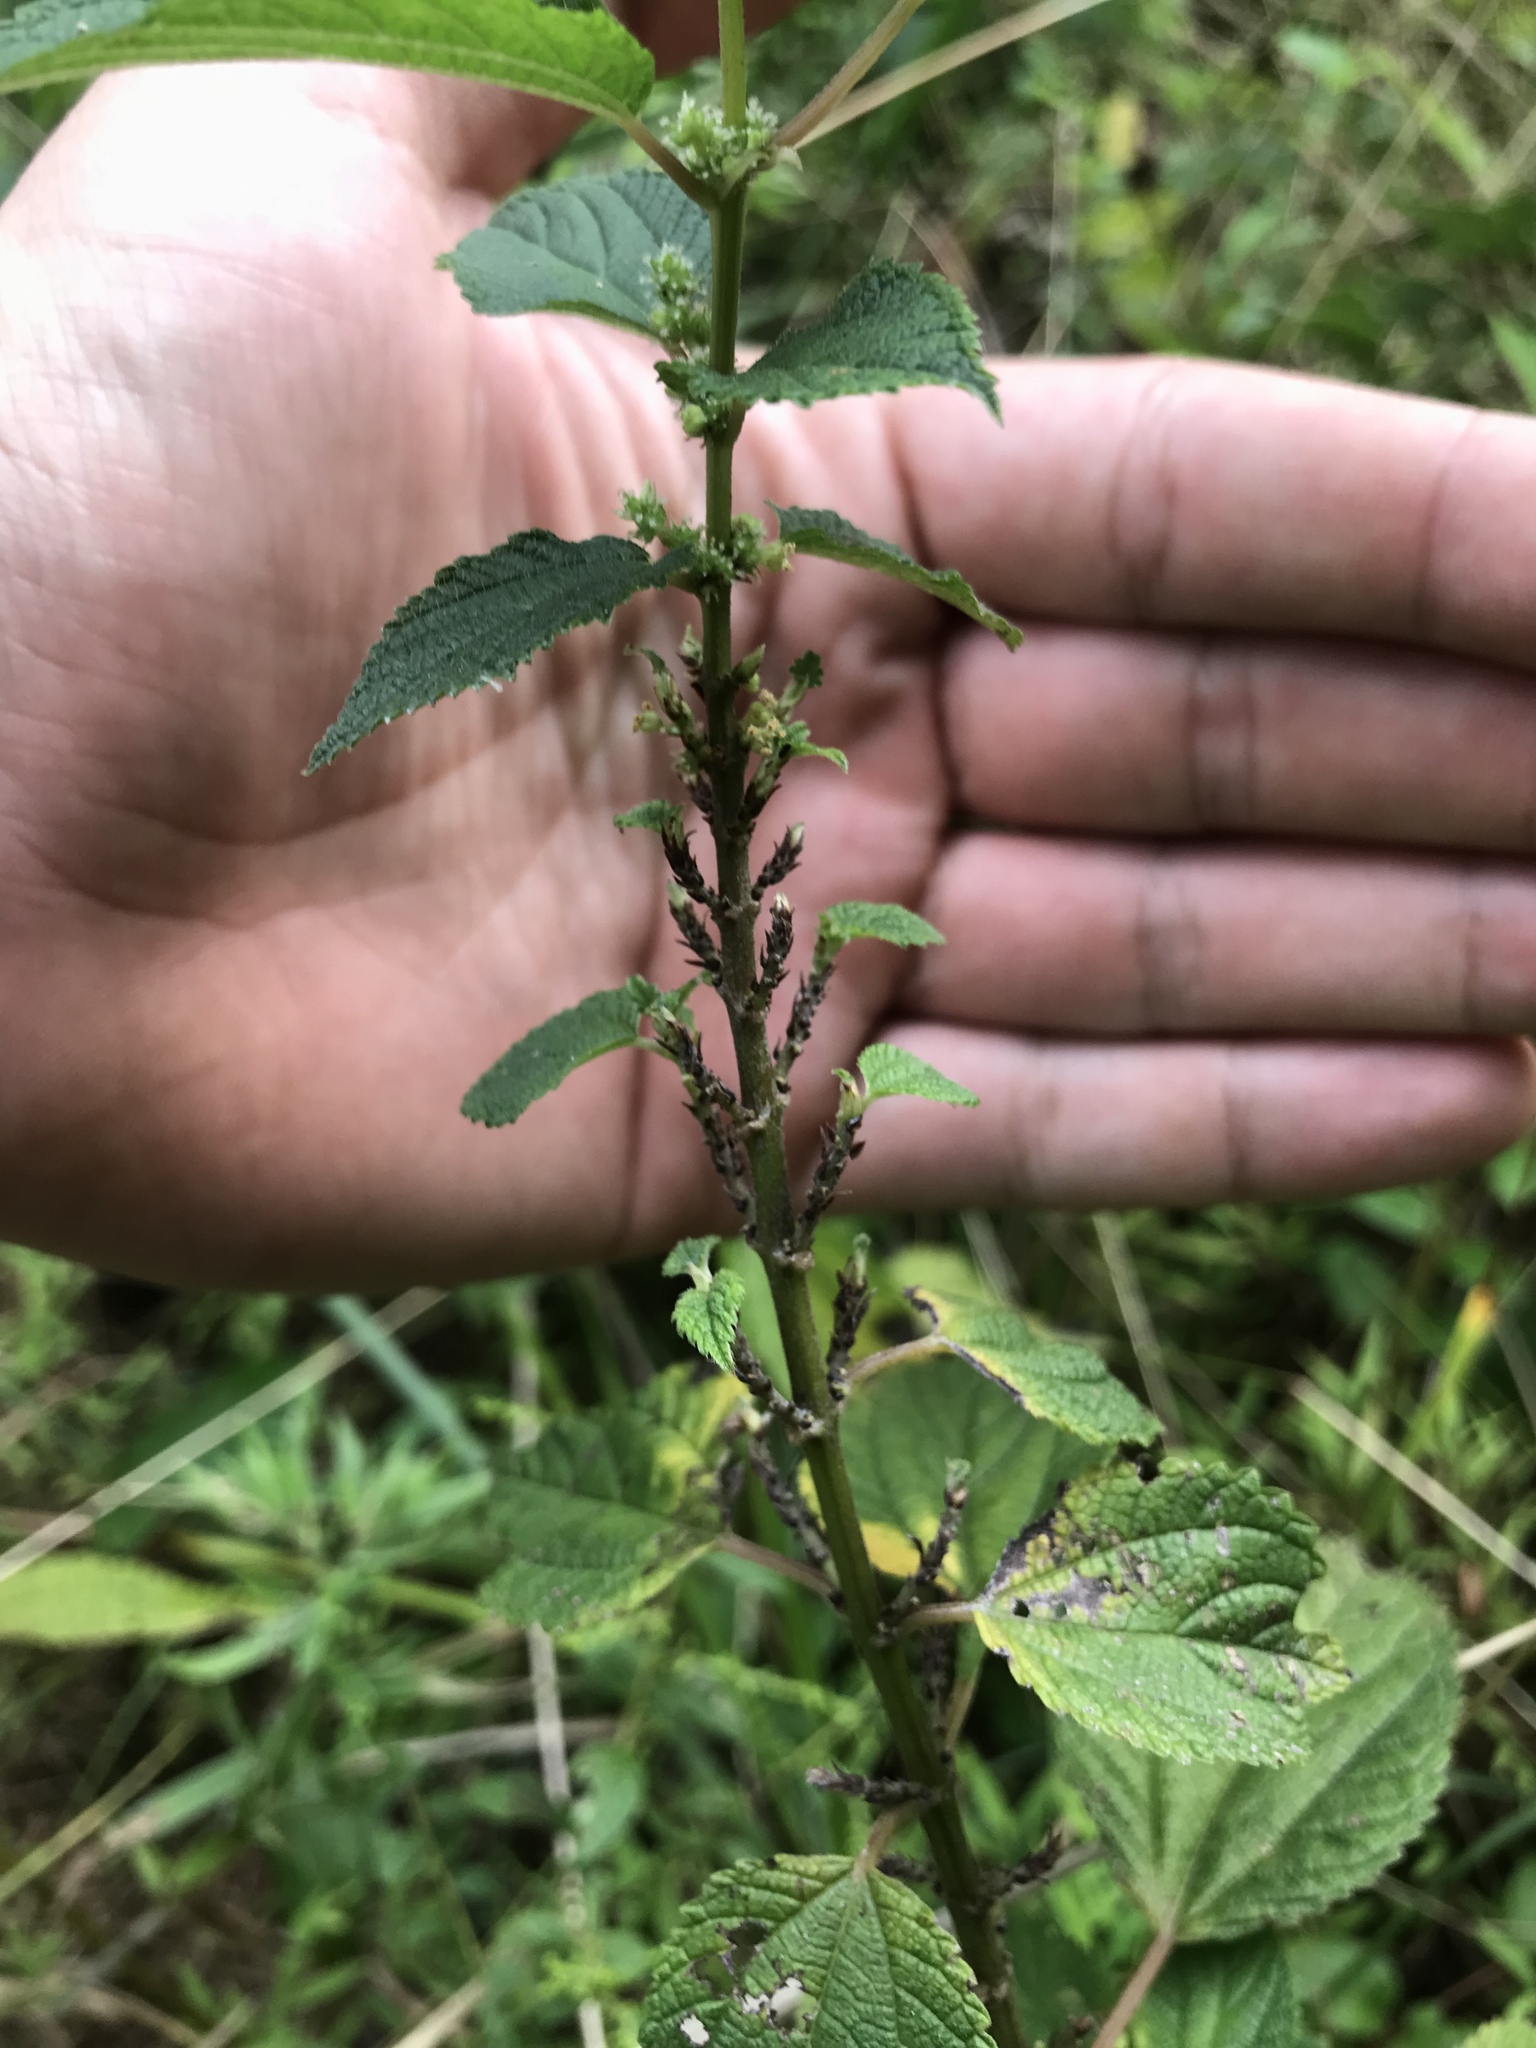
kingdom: Plantae
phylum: Tracheophyta
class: Magnoliopsida
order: Rosales
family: Urticaceae
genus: Boehmeria
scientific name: Boehmeria cylindrica
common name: Bog-hemp
